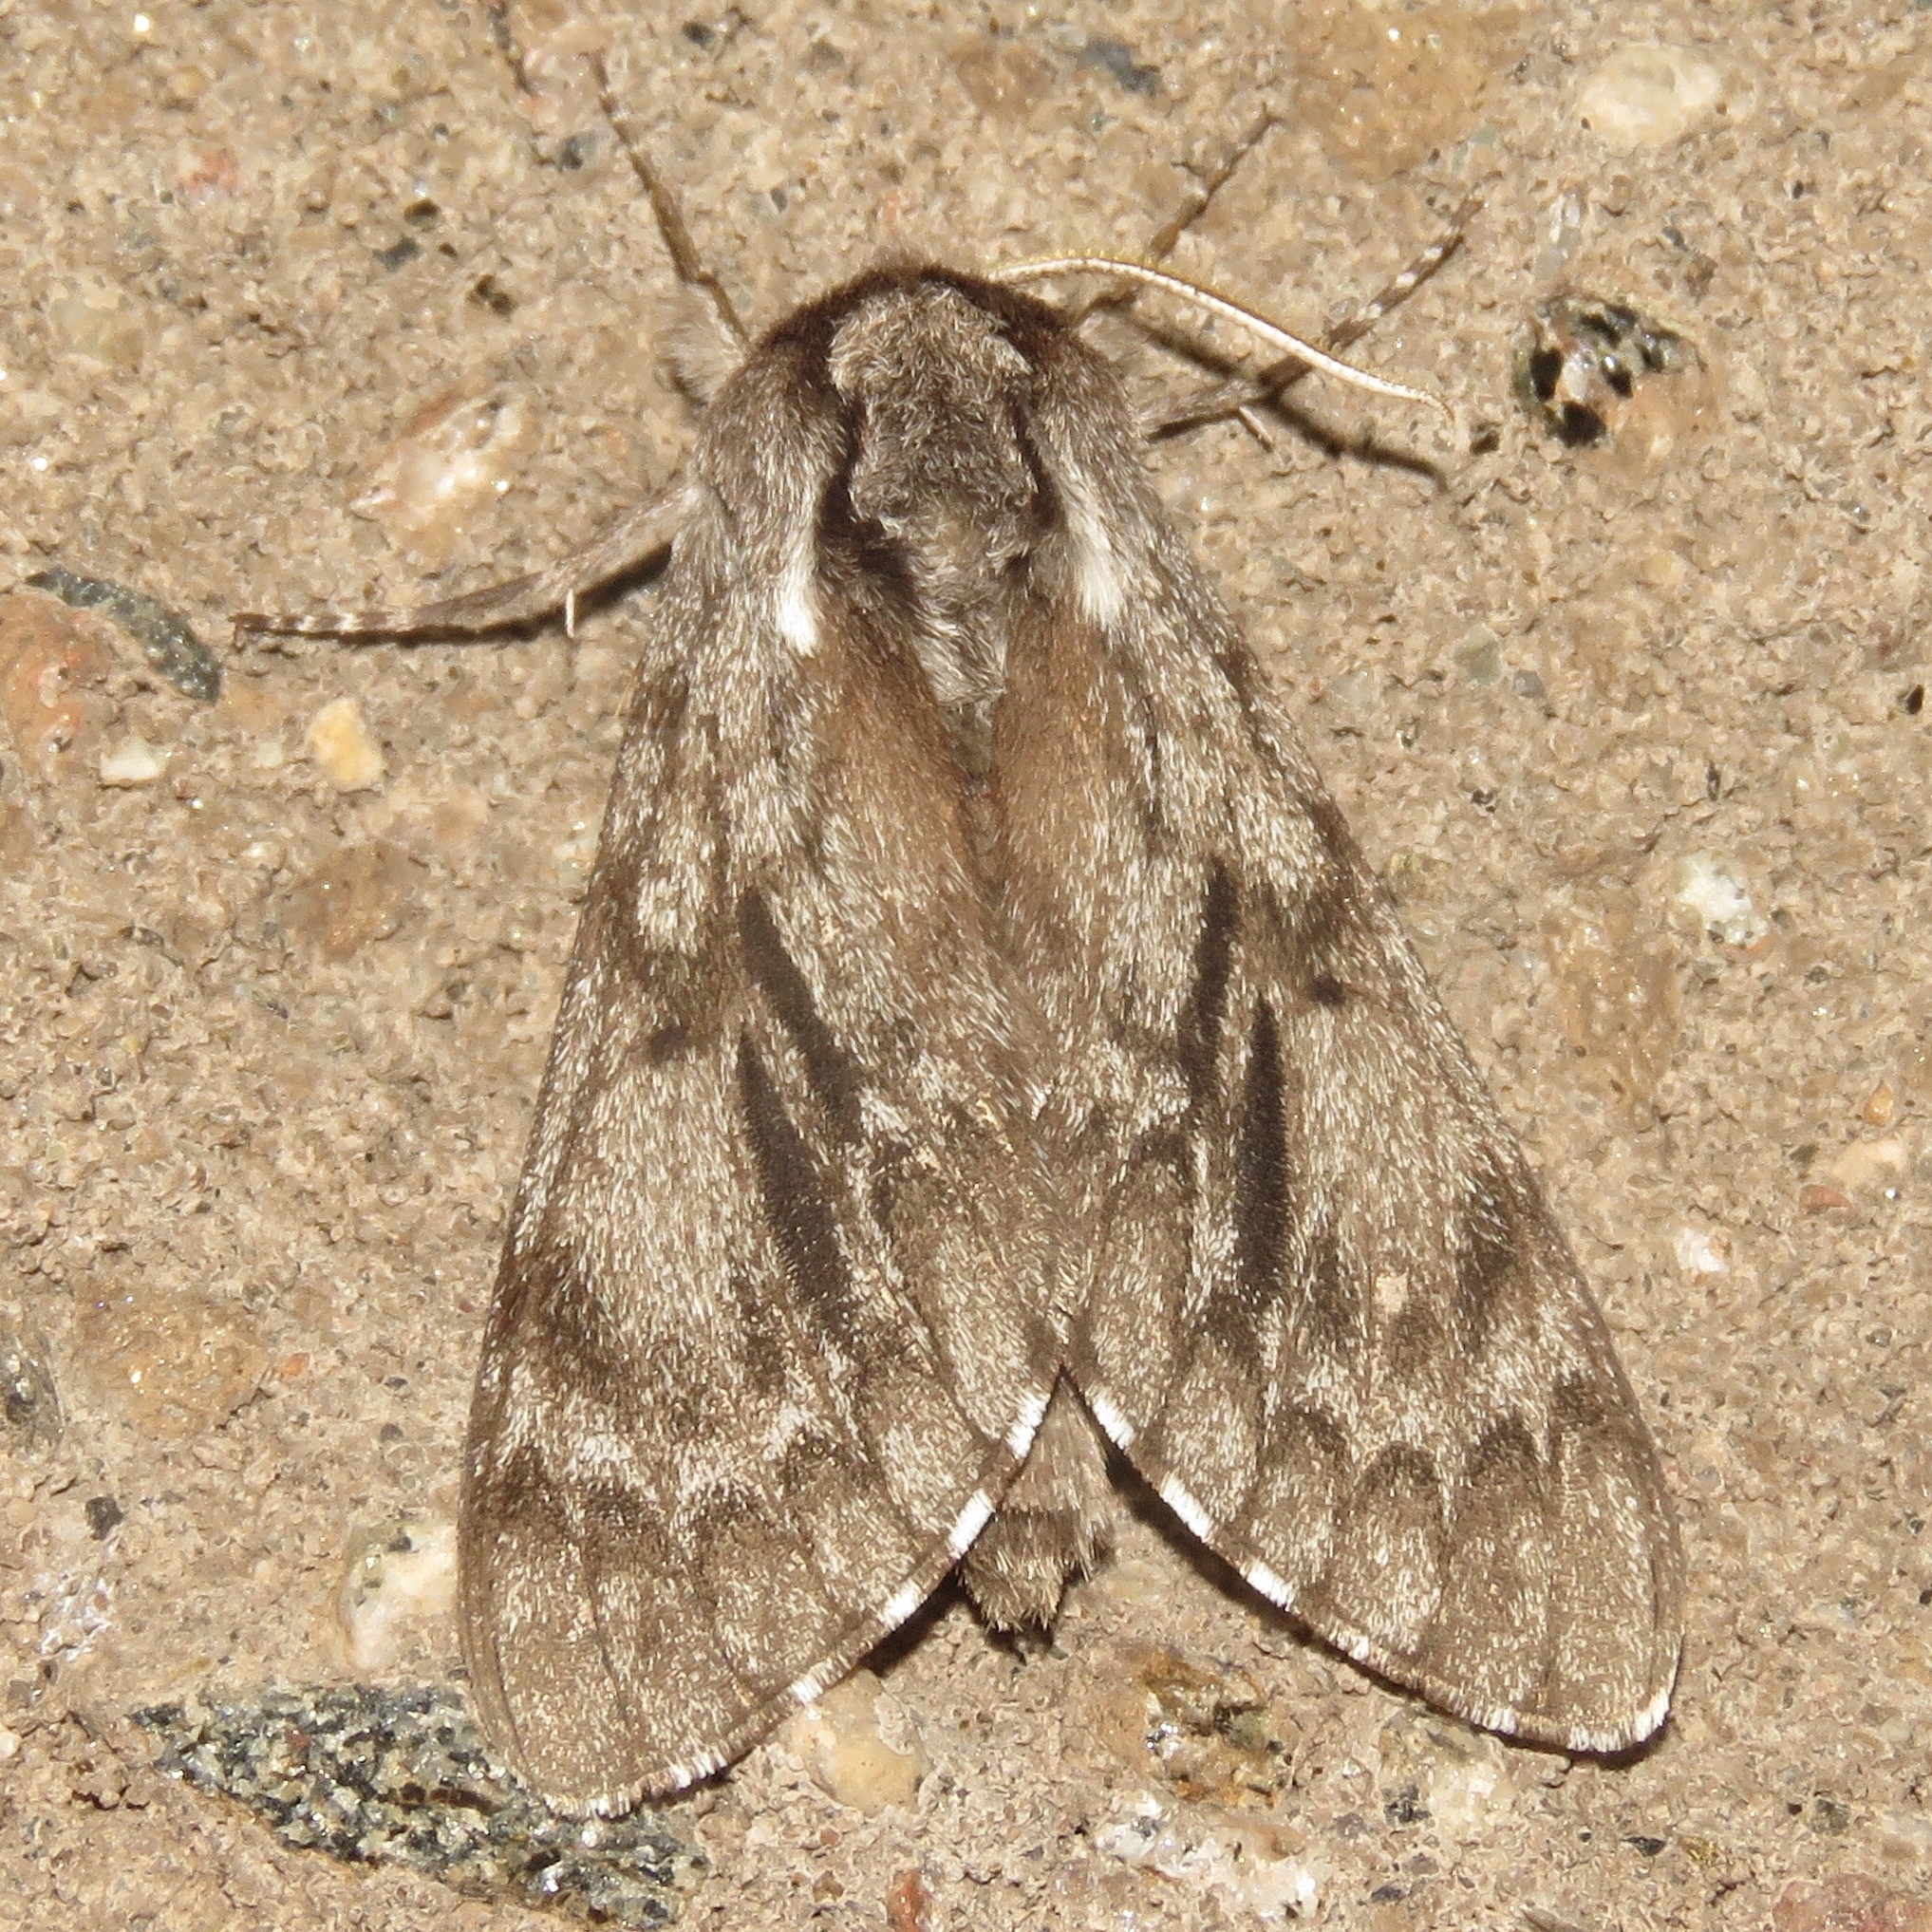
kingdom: Animalia
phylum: Arthropoda
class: Insecta
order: Lepidoptera
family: Sphingidae
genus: Lapara
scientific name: Lapara bombycoides
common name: Northern pine sphinx
